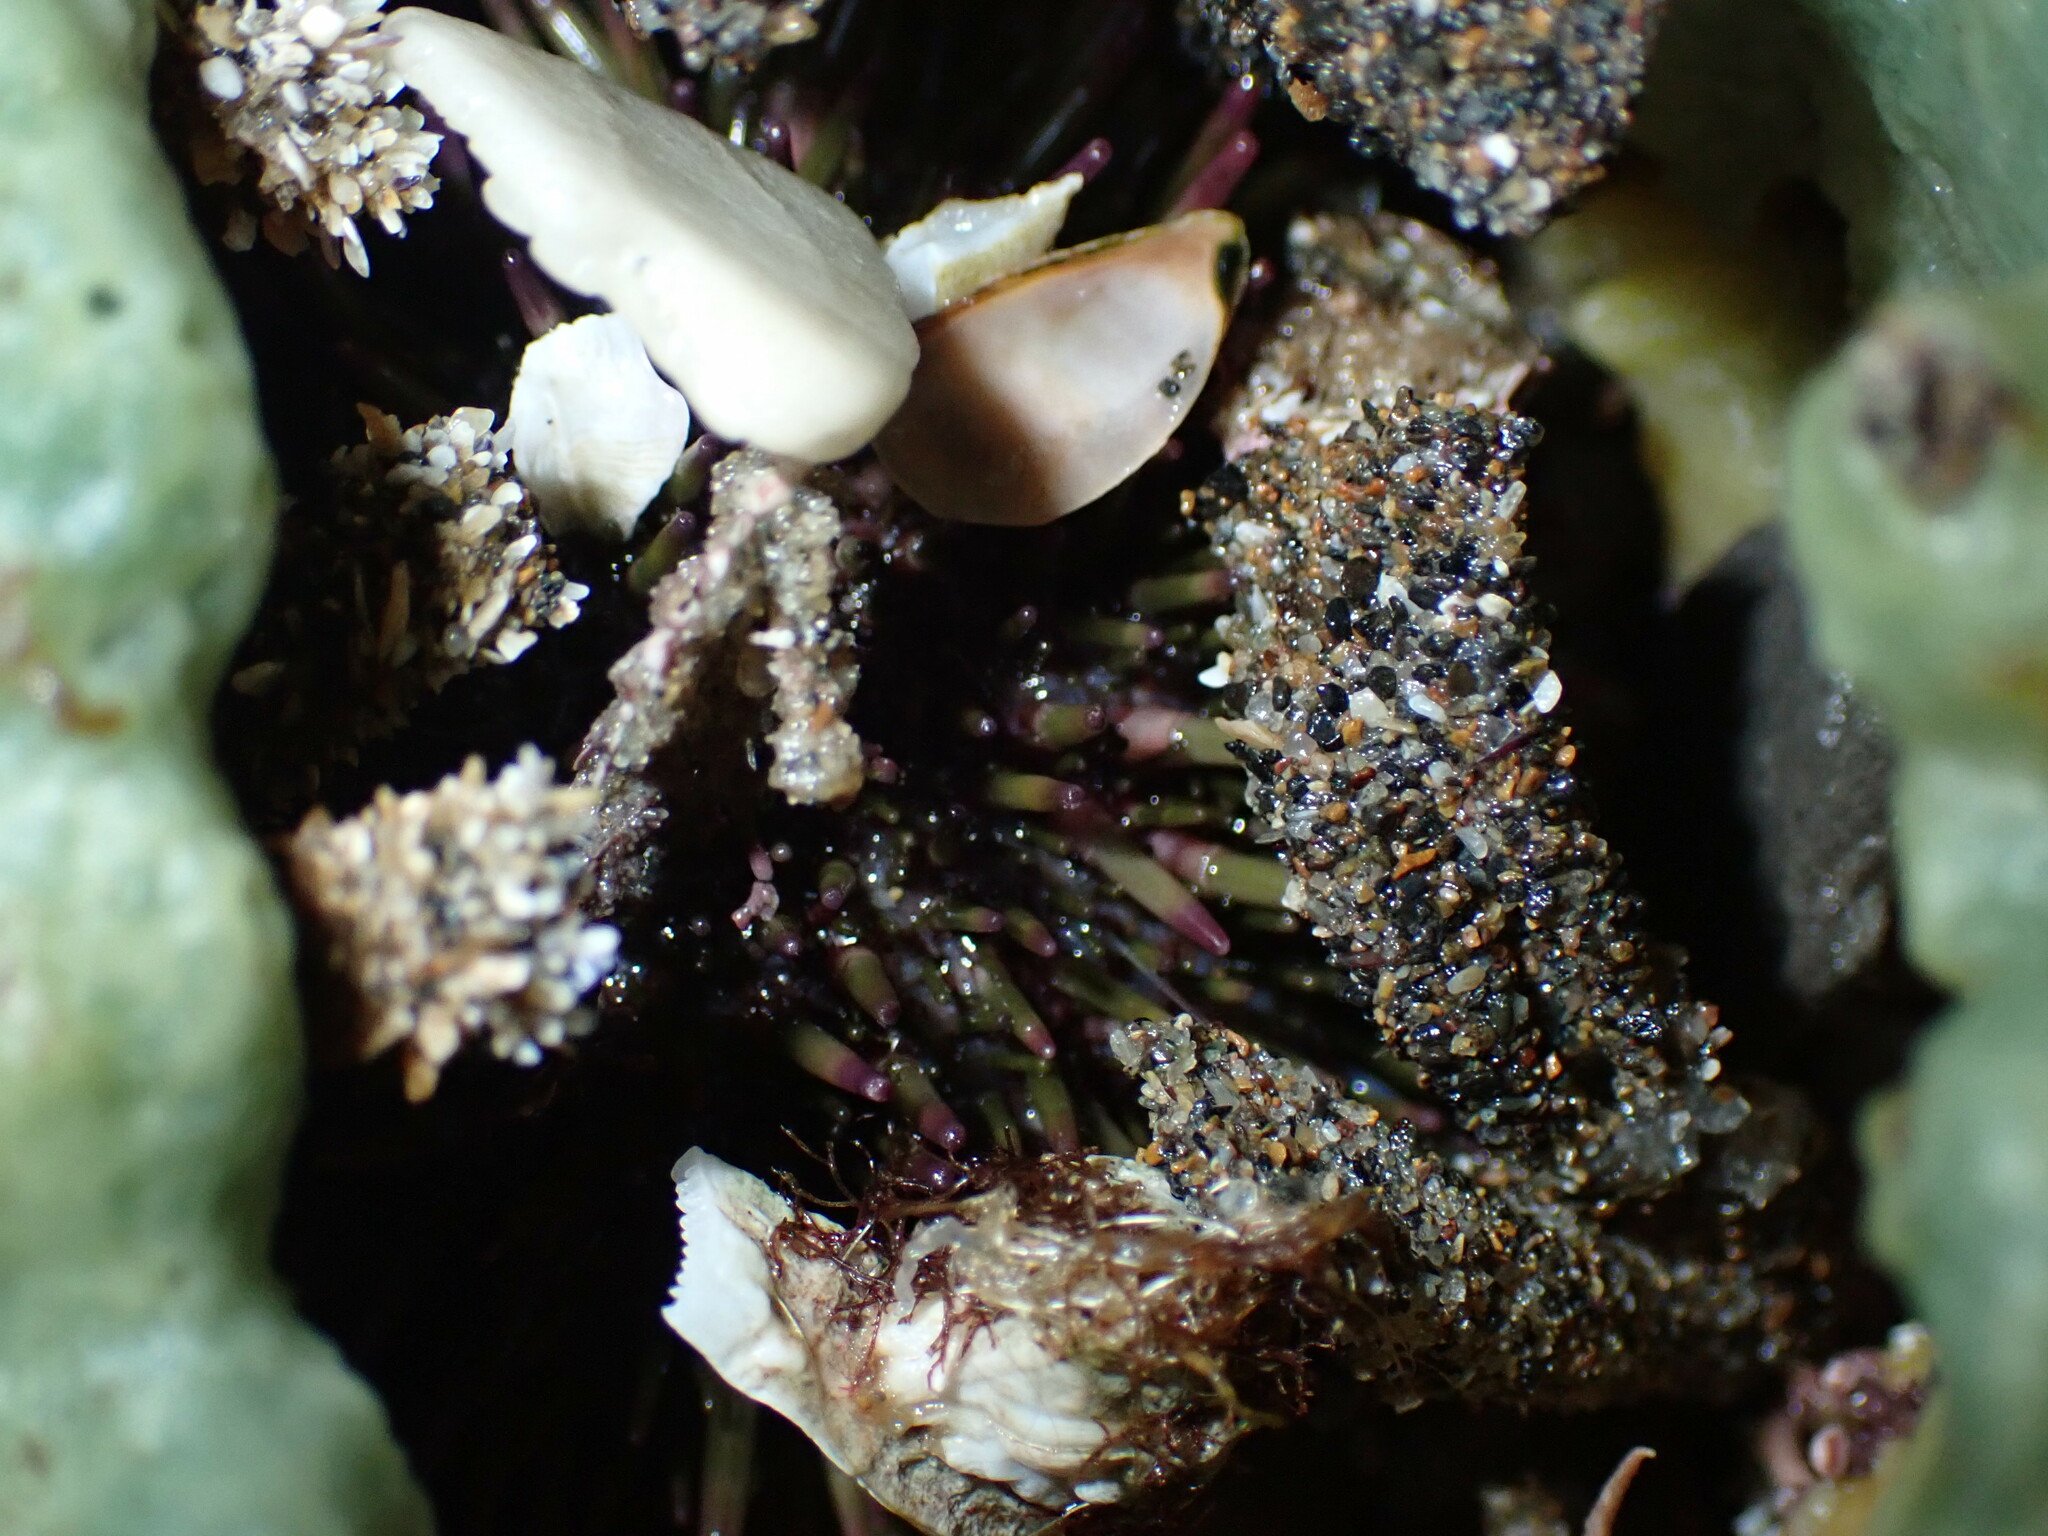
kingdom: Animalia
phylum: Echinodermata
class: Echinoidea
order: Camarodonta
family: Strongylocentrotidae
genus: Strongylocentrotus
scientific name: Strongylocentrotus purpuratus
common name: Purple sea urchin
